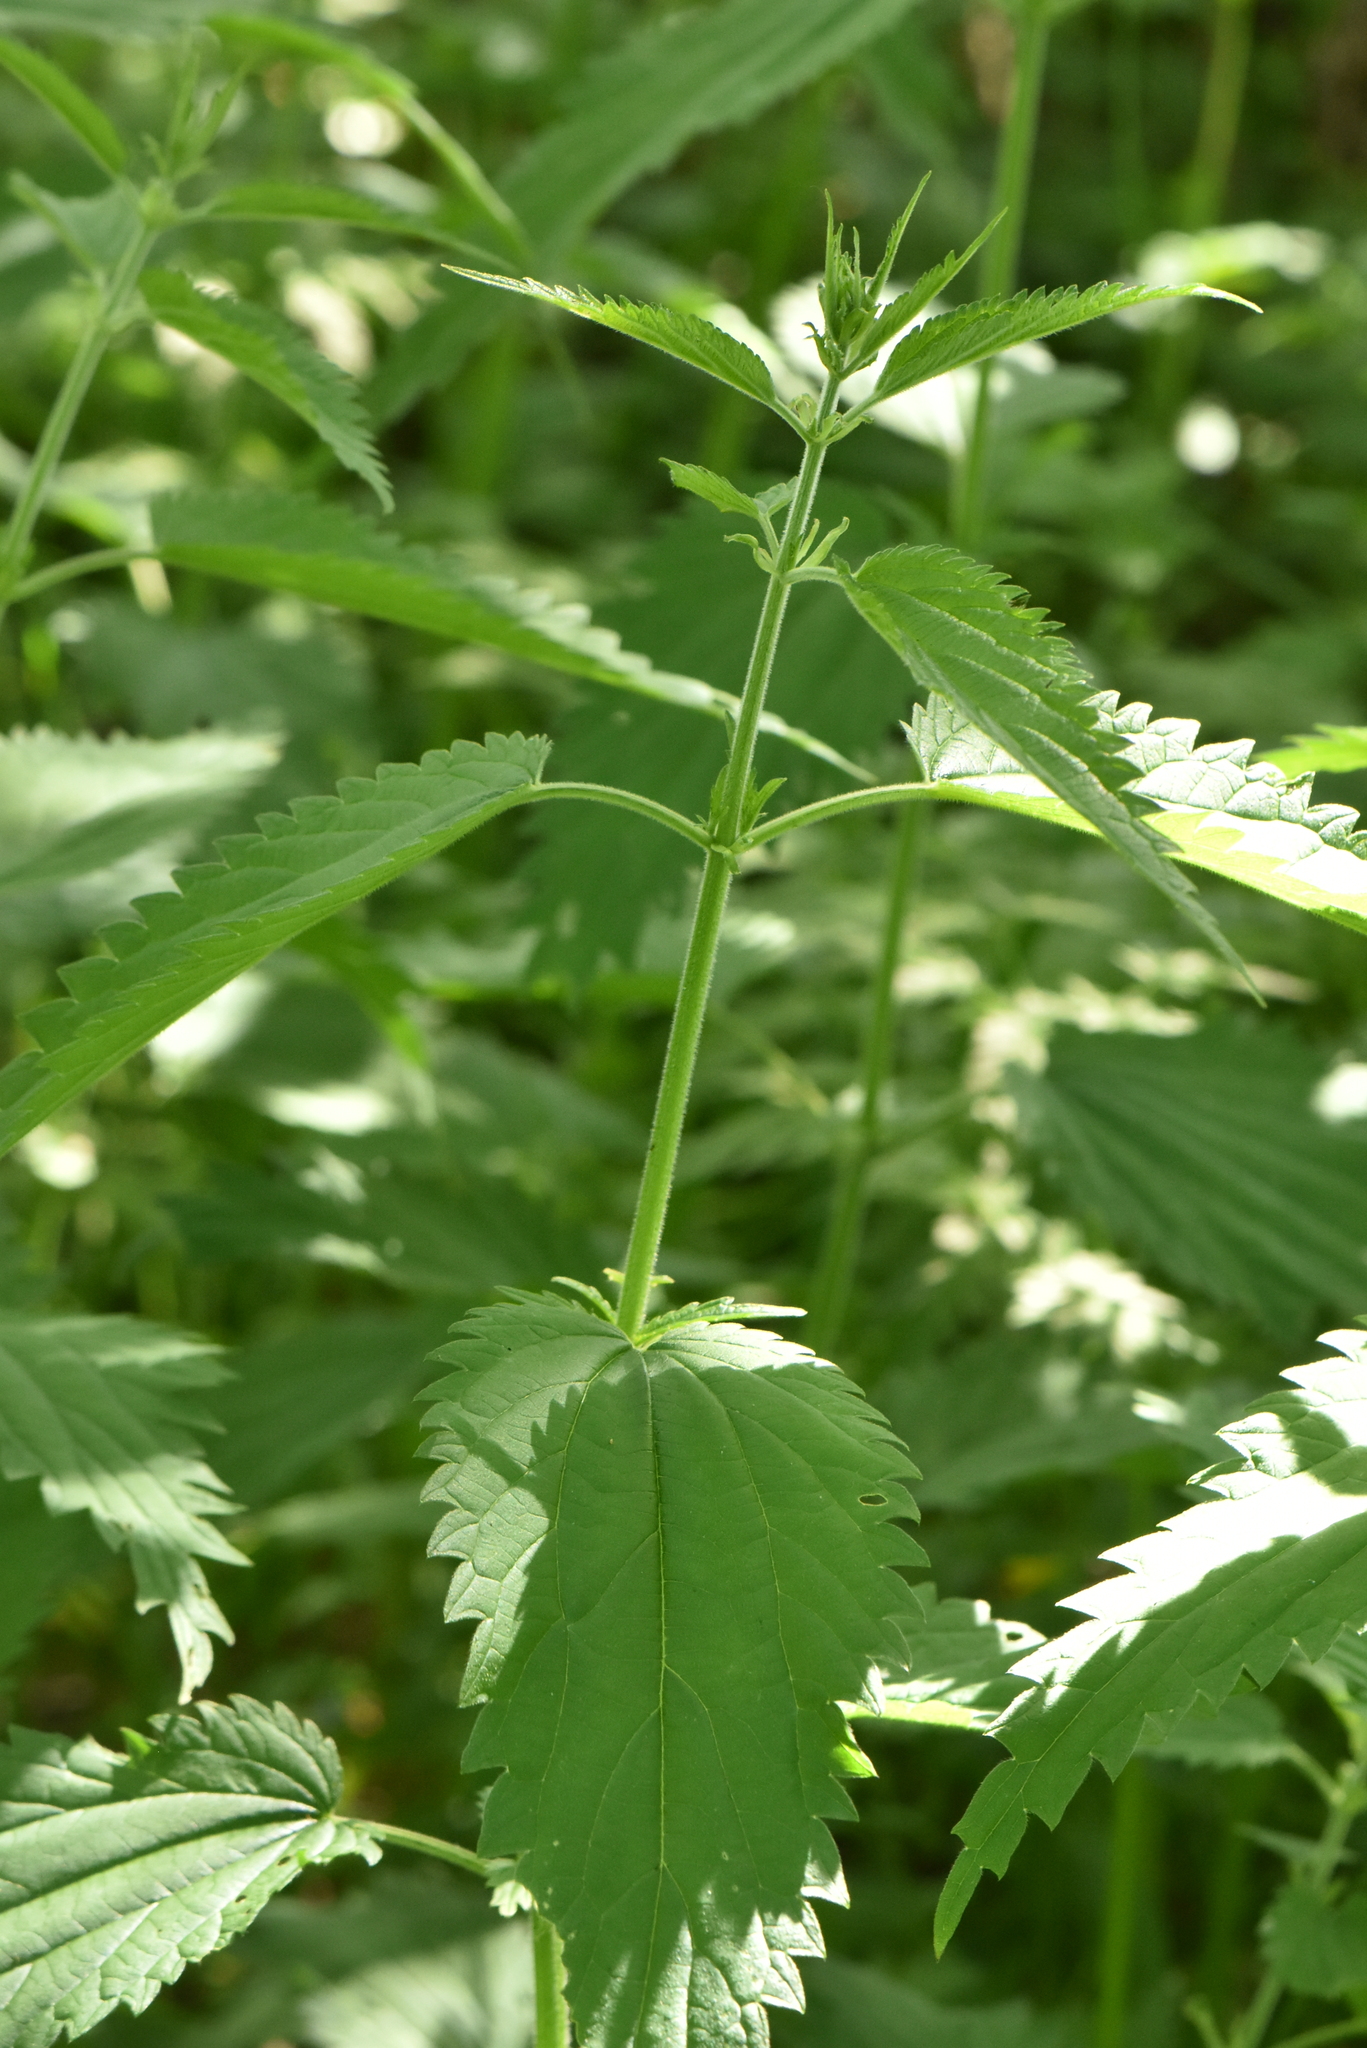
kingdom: Plantae
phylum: Tracheophyta
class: Magnoliopsida
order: Rosales
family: Urticaceae
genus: Urtica
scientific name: Urtica galeopsifolia
